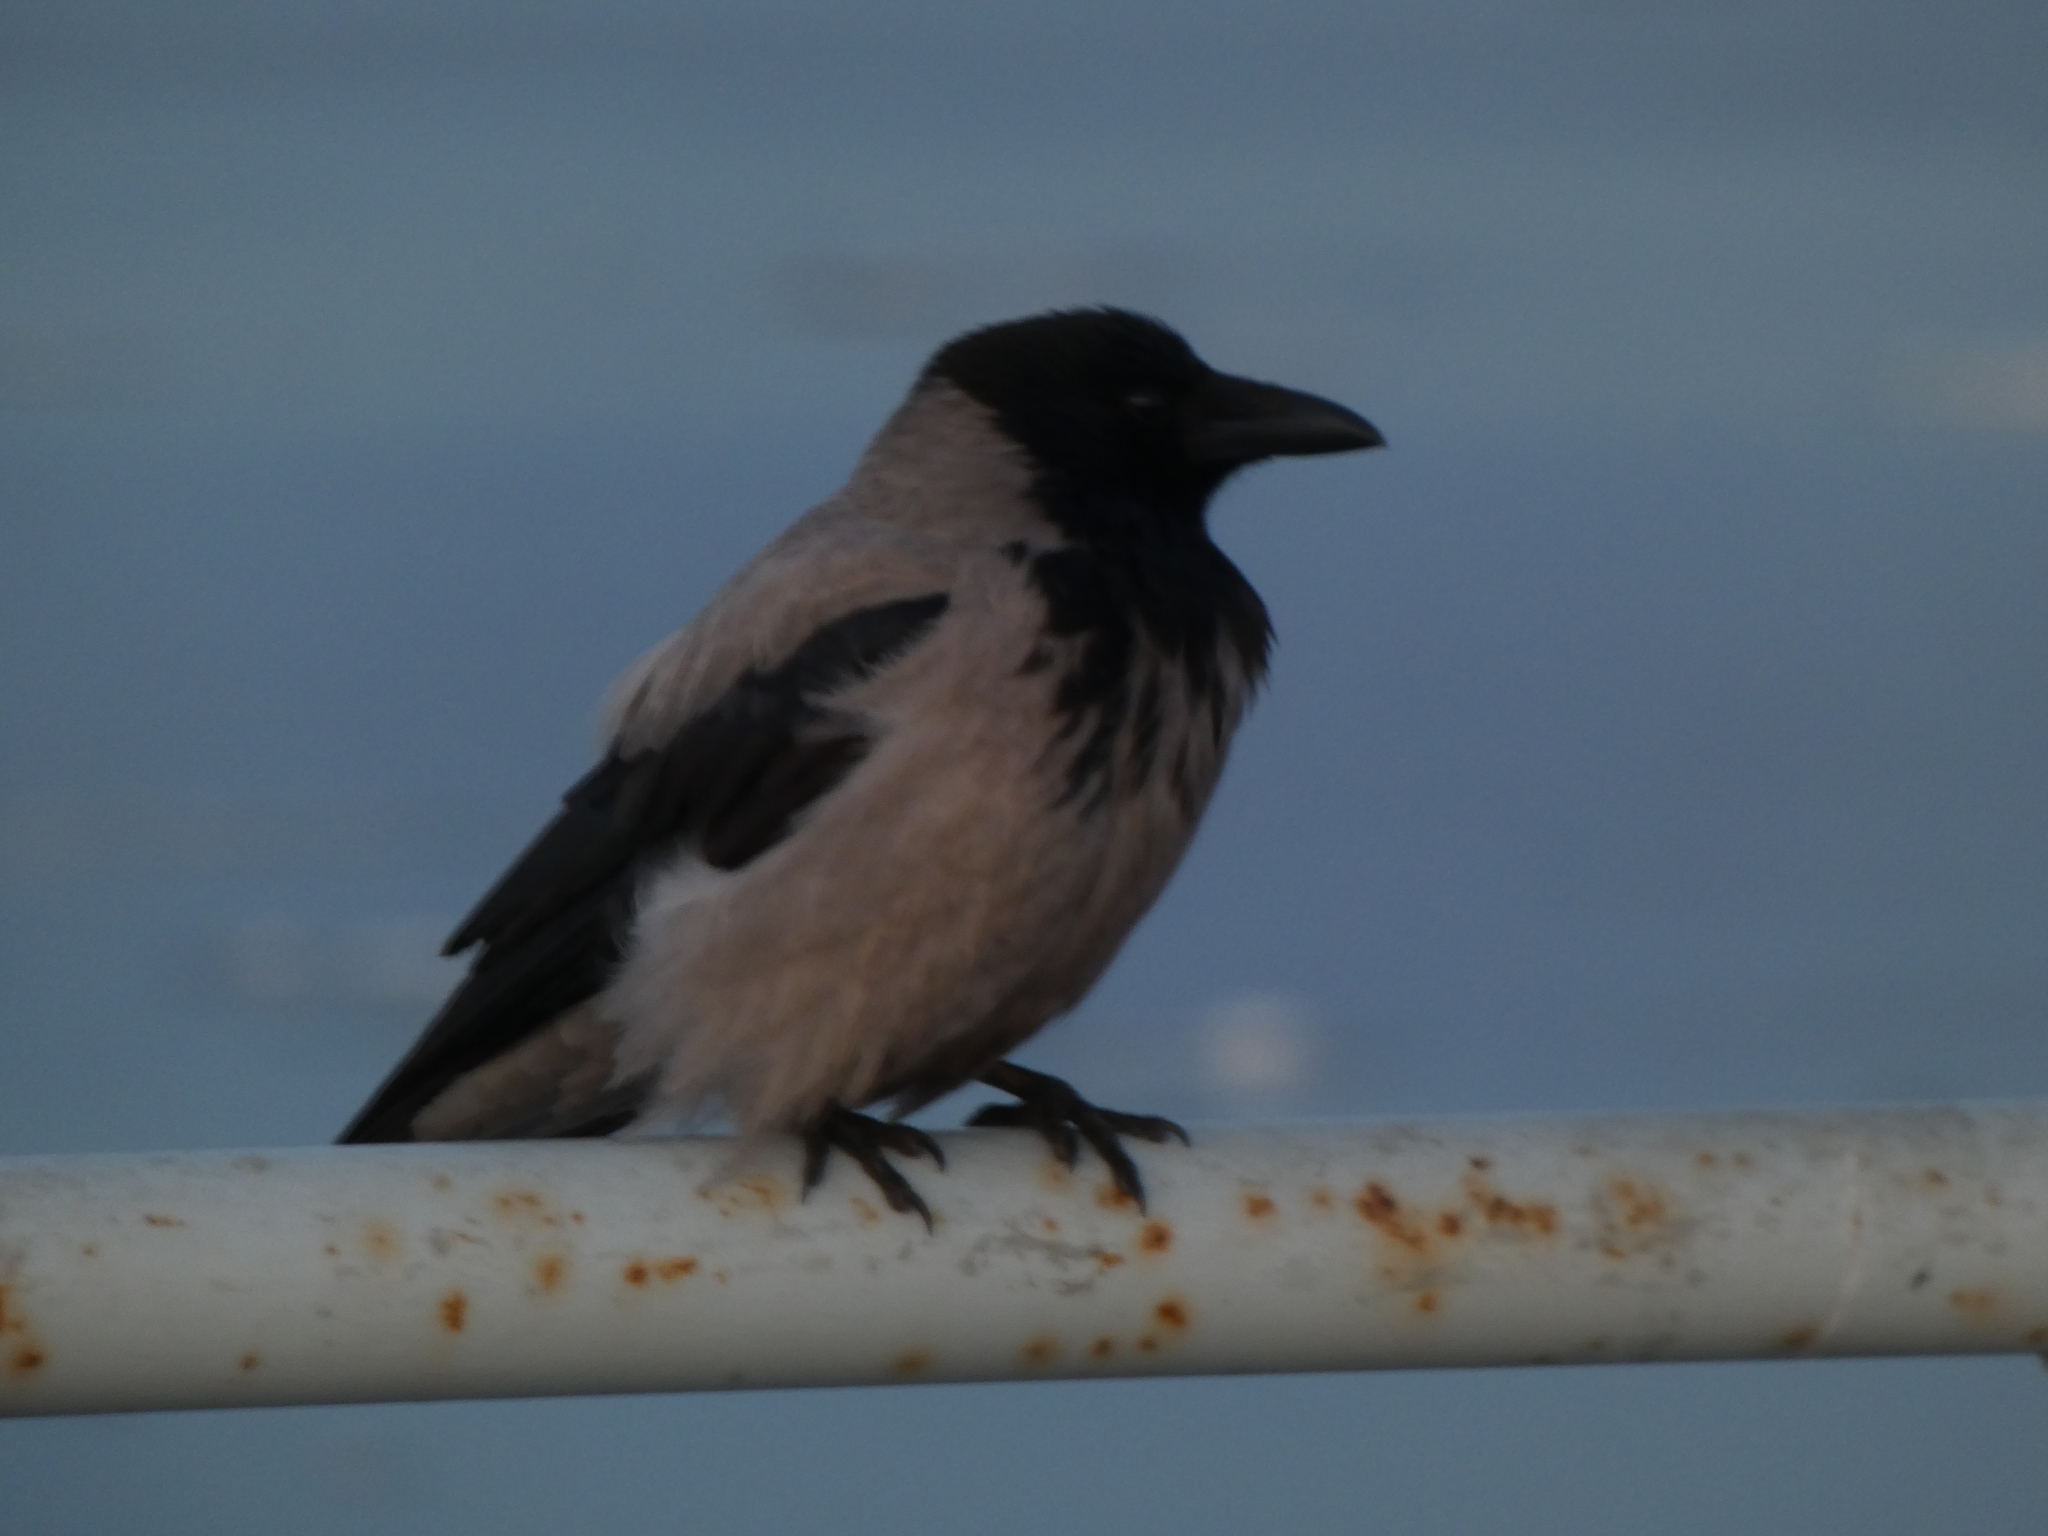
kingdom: Animalia
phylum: Chordata
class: Aves
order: Passeriformes
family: Corvidae
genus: Corvus
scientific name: Corvus cornix
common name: Hooded crow
